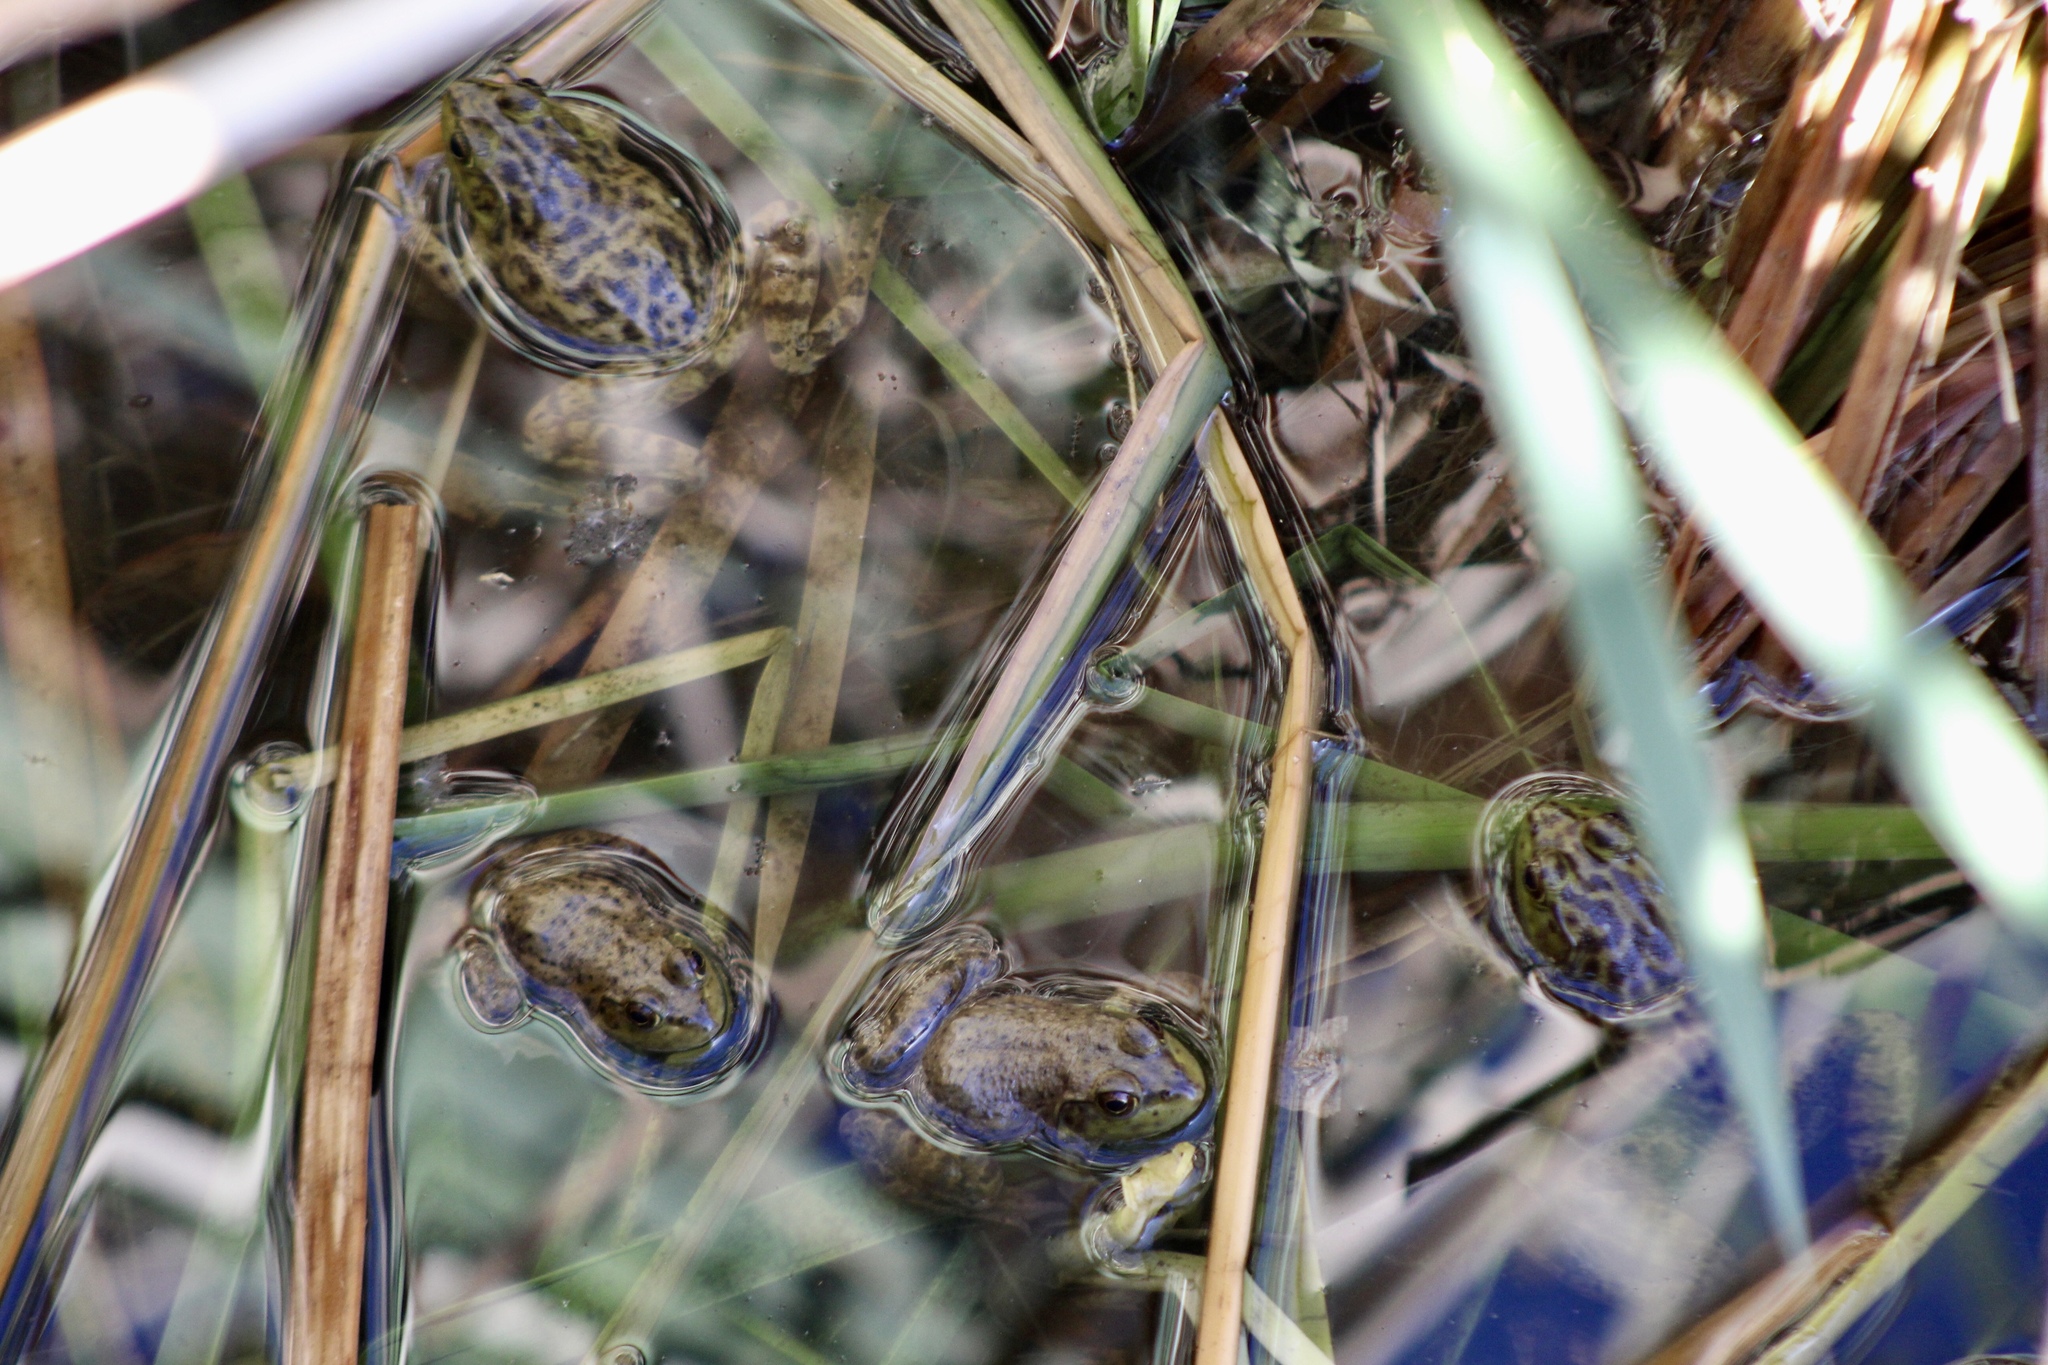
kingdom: Animalia
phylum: Chordata
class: Amphibia
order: Anura
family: Ranidae
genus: Lithobates
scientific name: Lithobates catesbeianus
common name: American bullfrog
